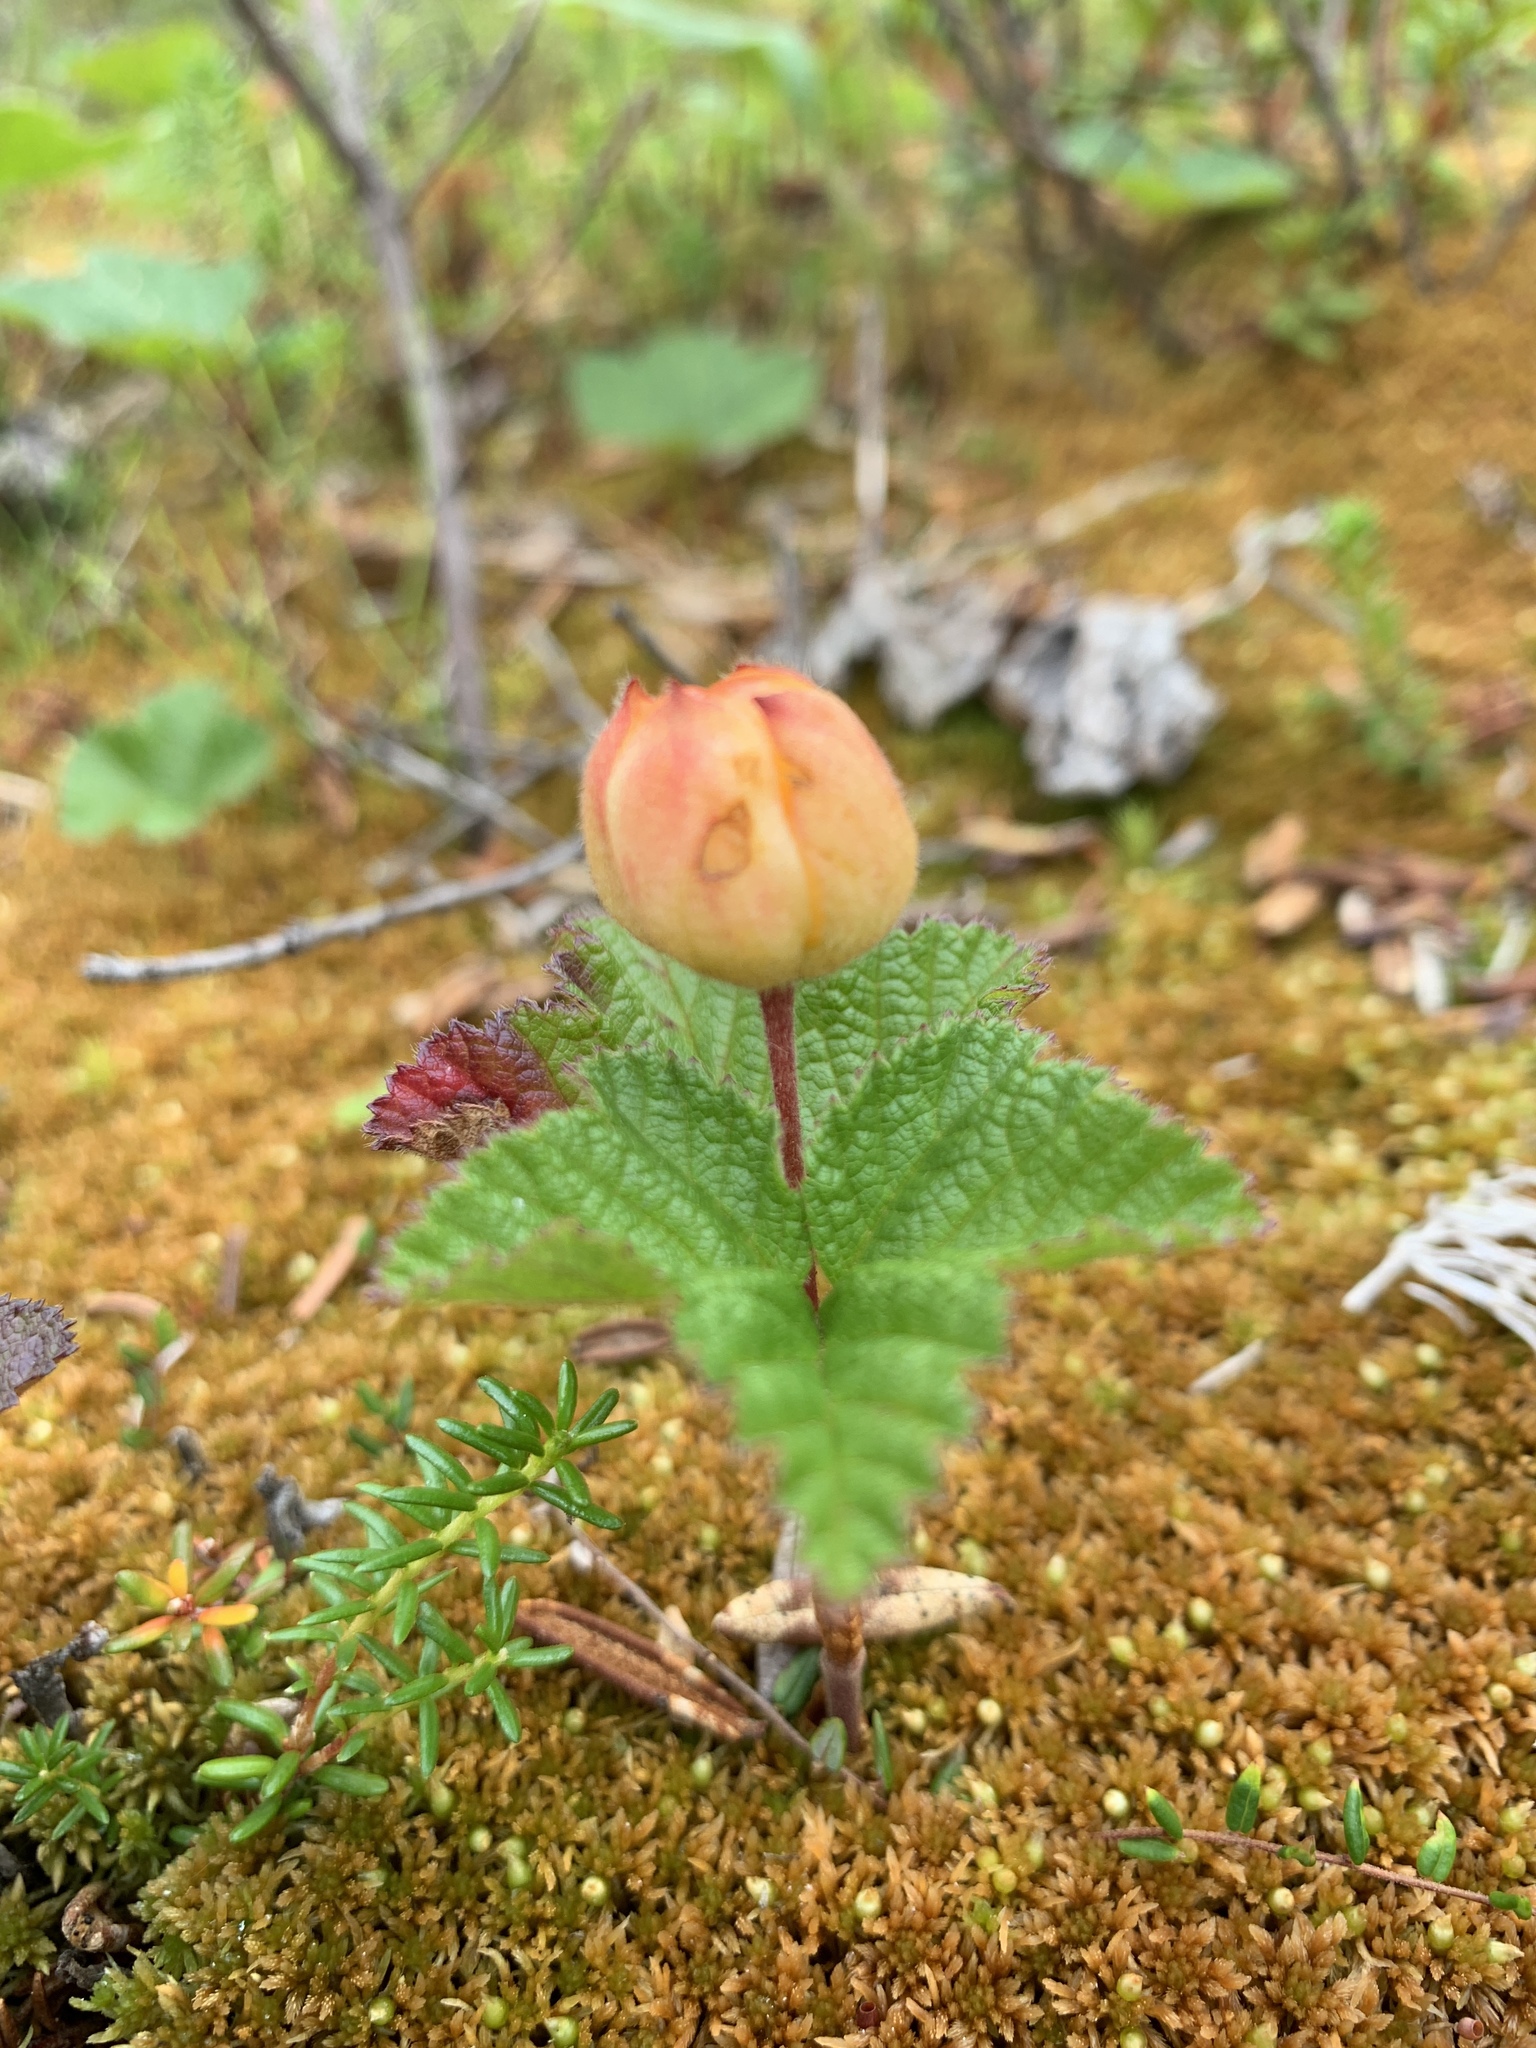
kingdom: Plantae
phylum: Tracheophyta
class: Magnoliopsida
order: Rosales
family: Rosaceae
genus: Rubus
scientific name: Rubus chamaemorus
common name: Cloudberry
